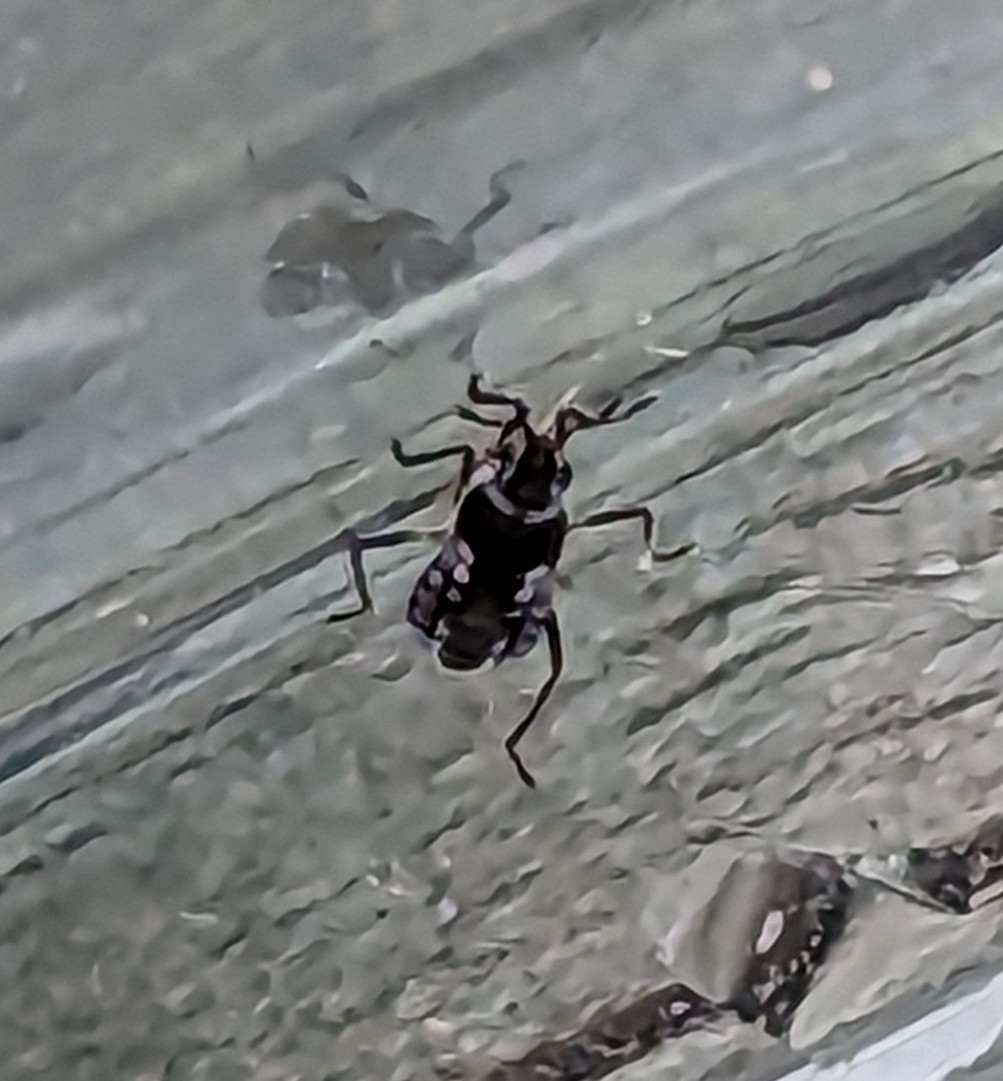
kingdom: Animalia
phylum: Arthropoda
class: Insecta
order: Hemiptera
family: Veliidae
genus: Microvelia
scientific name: Microvelia buenoi
